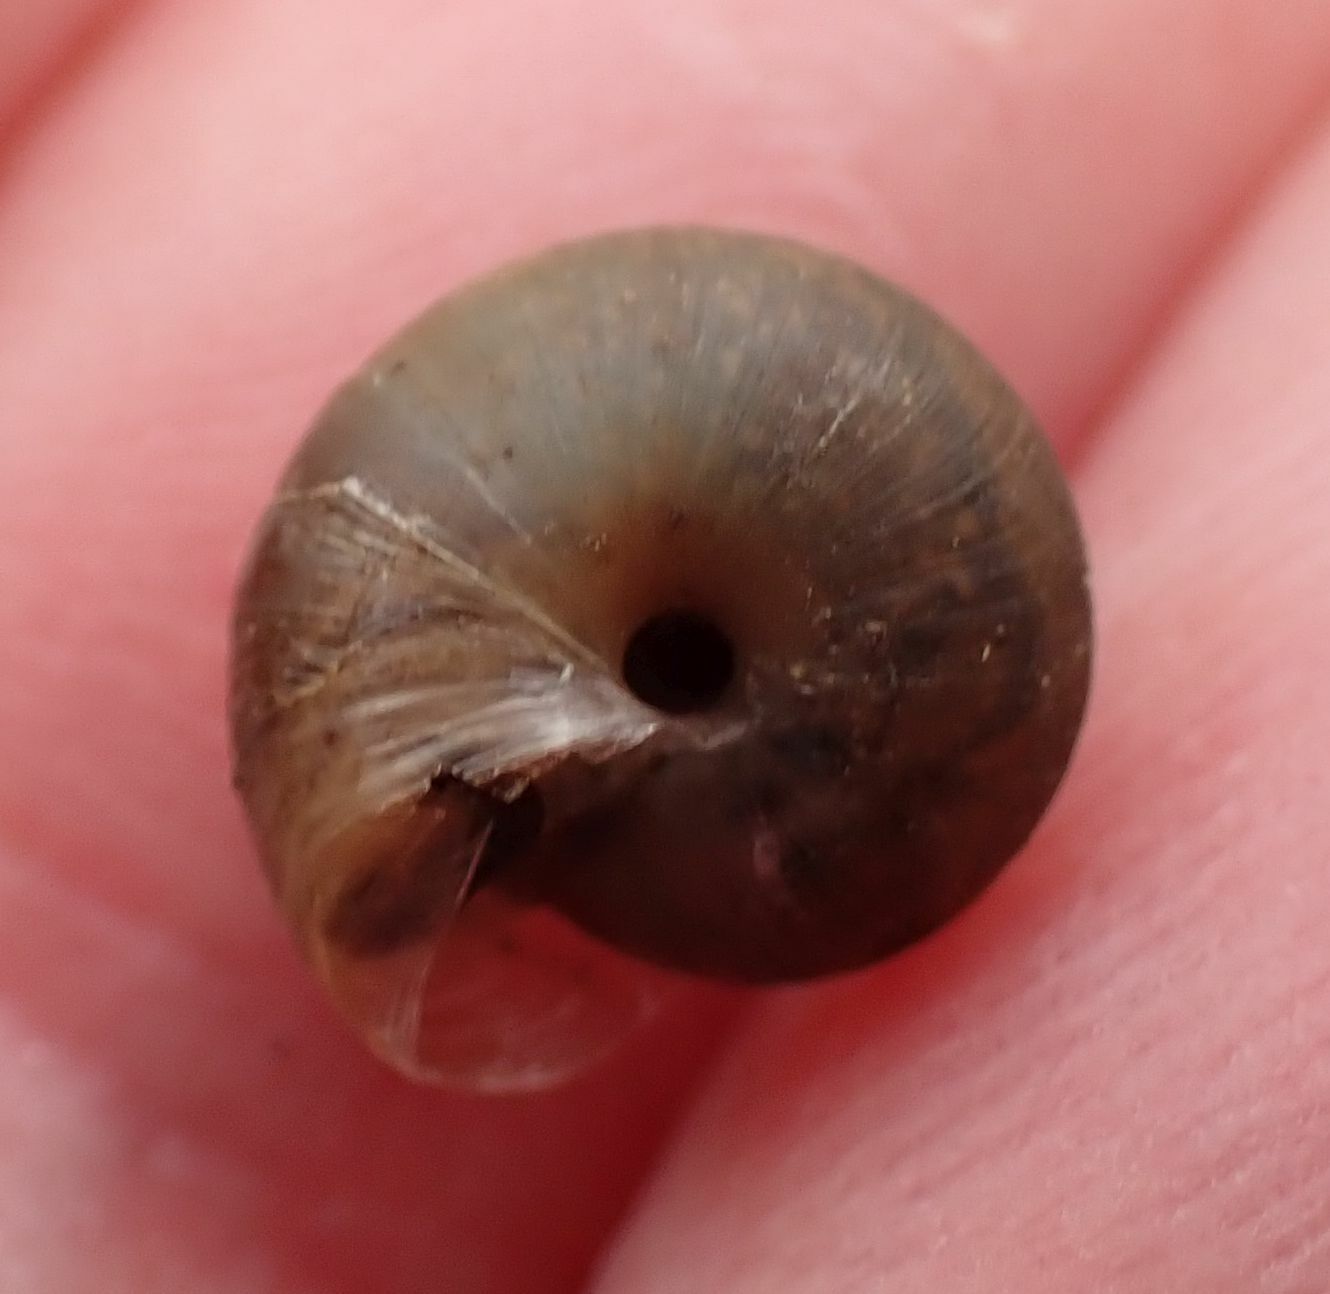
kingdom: Animalia
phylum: Mollusca
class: Gastropoda
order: Stylommatophora
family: Hygromiidae
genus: Trochulus
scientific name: Trochulus striolatus
